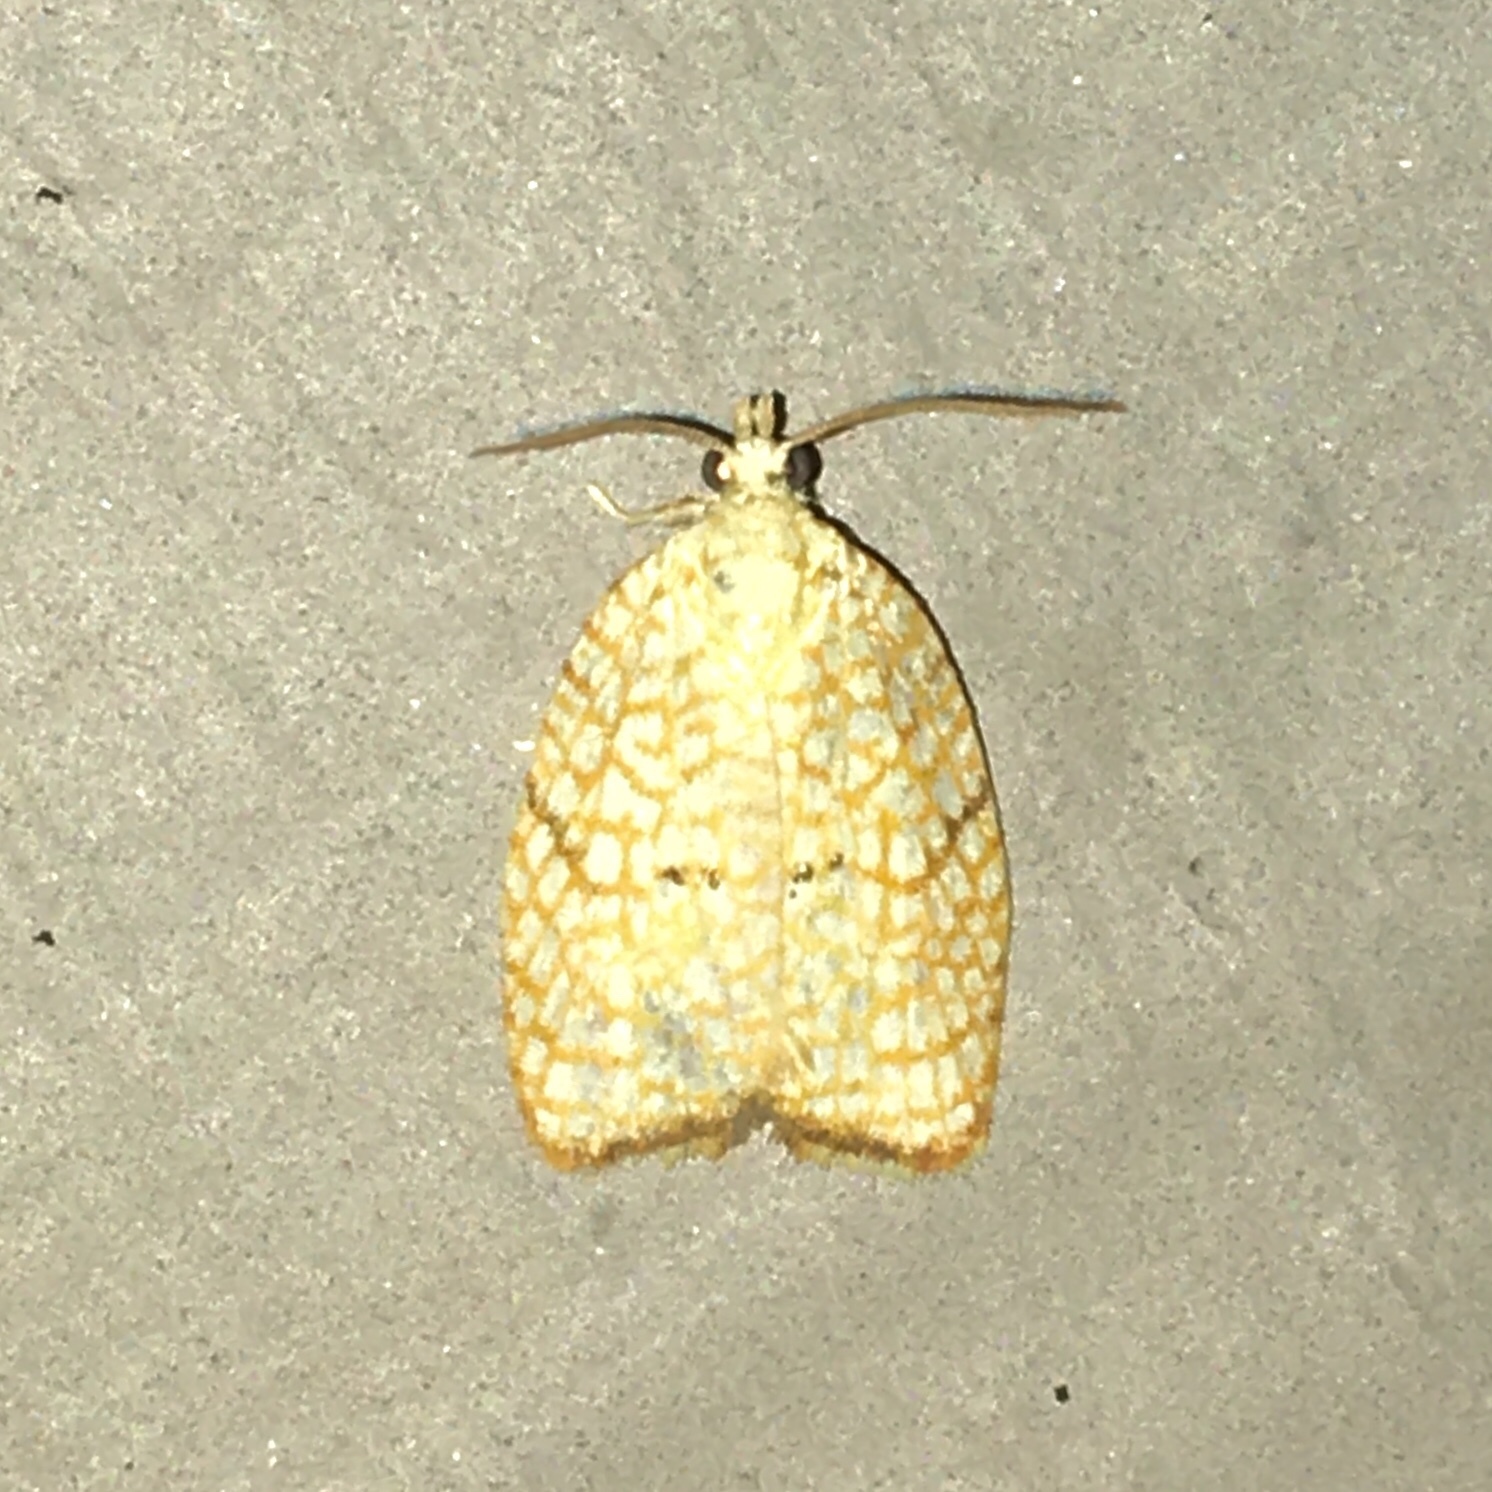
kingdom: Animalia
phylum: Arthropoda
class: Insecta
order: Lepidoptera
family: Tortricidae
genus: Acleris
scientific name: Acleris forsskaleana
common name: Maple button
